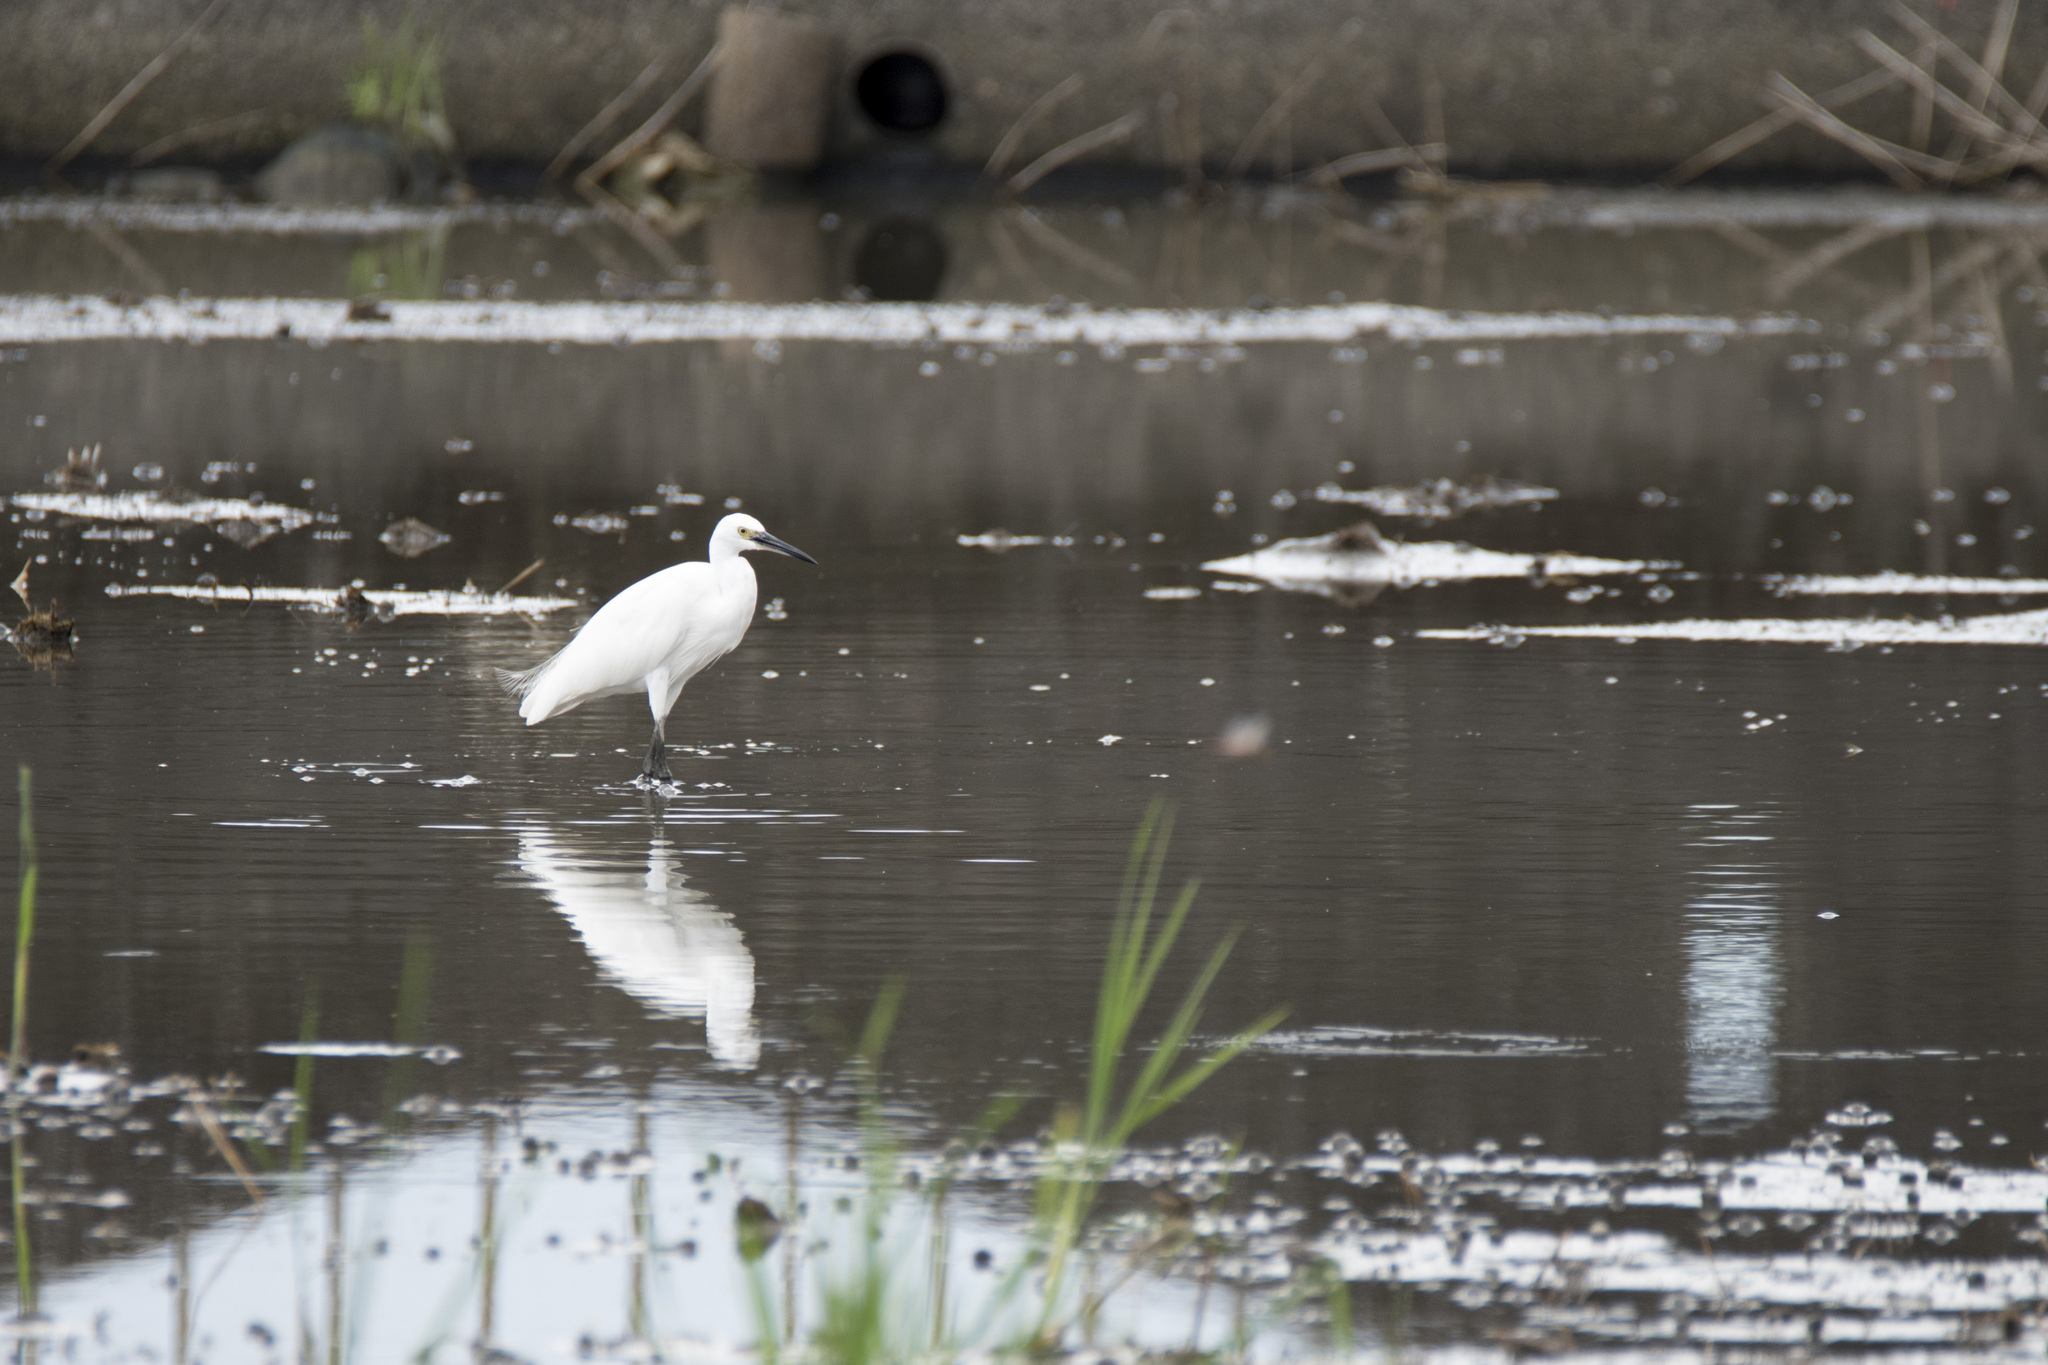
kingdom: Animalia
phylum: Chordata
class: Aves
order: Pelecaniformes
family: Ardeidae
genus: Egretta
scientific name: Egretta garzetta
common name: Little egret
